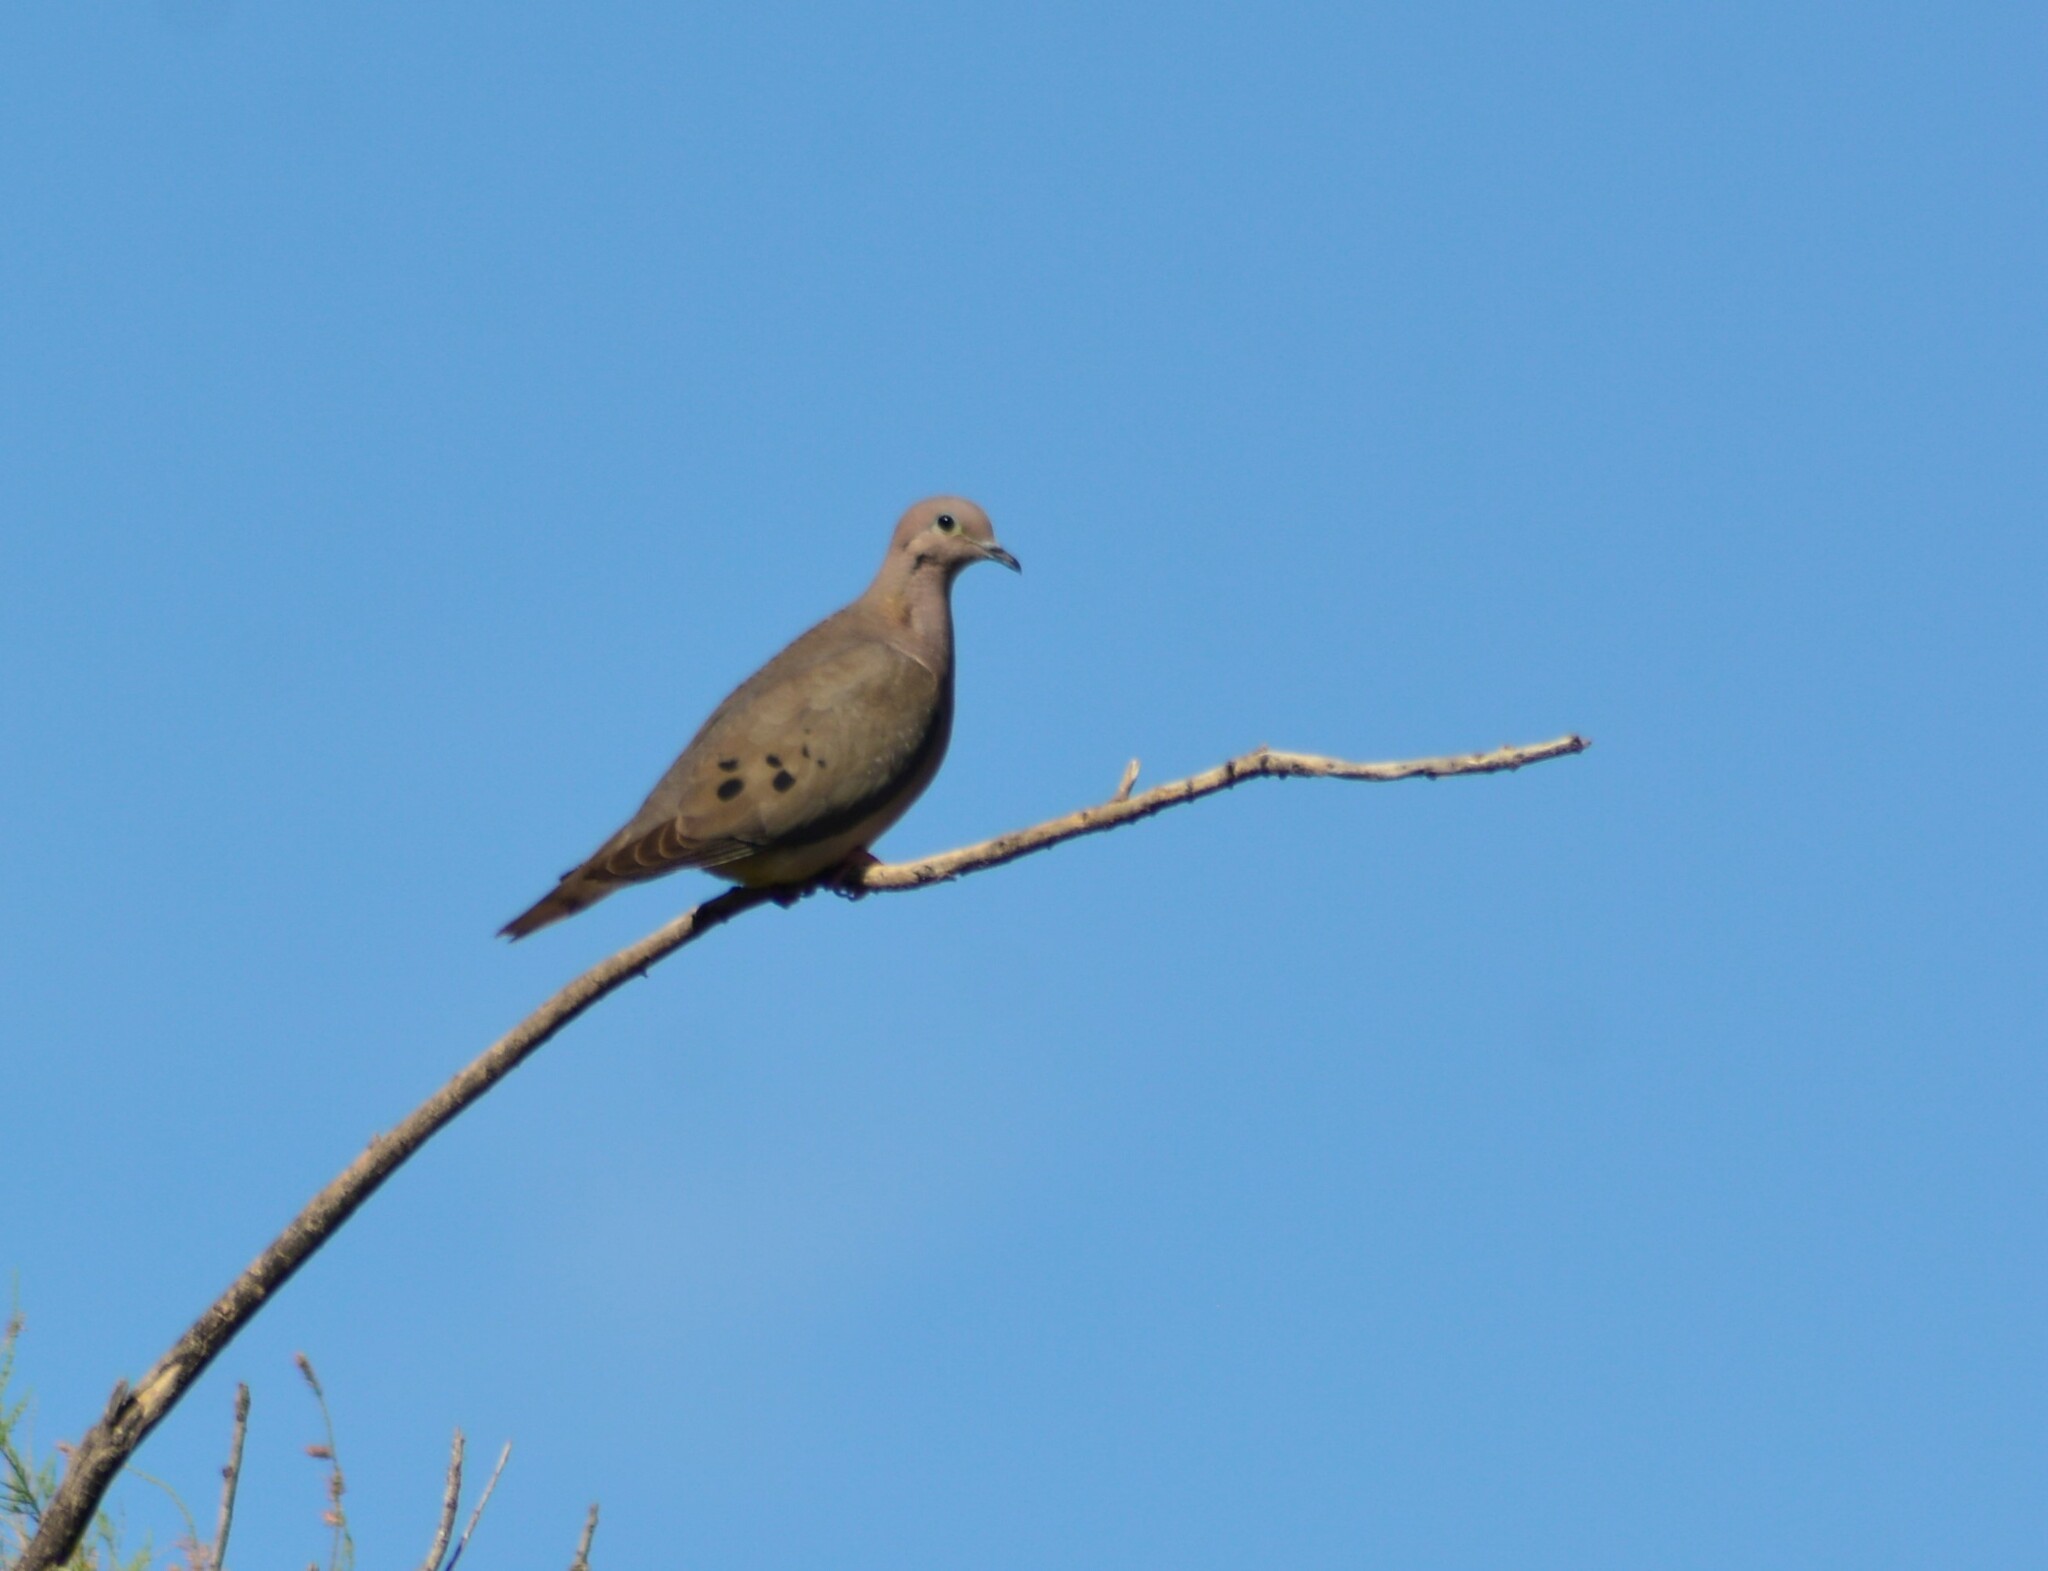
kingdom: Animalia
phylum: Chordata
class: Aves
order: Columbiformes
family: Columbidae
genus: Zenaida
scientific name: Zenaida auriculata
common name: Eared dove
